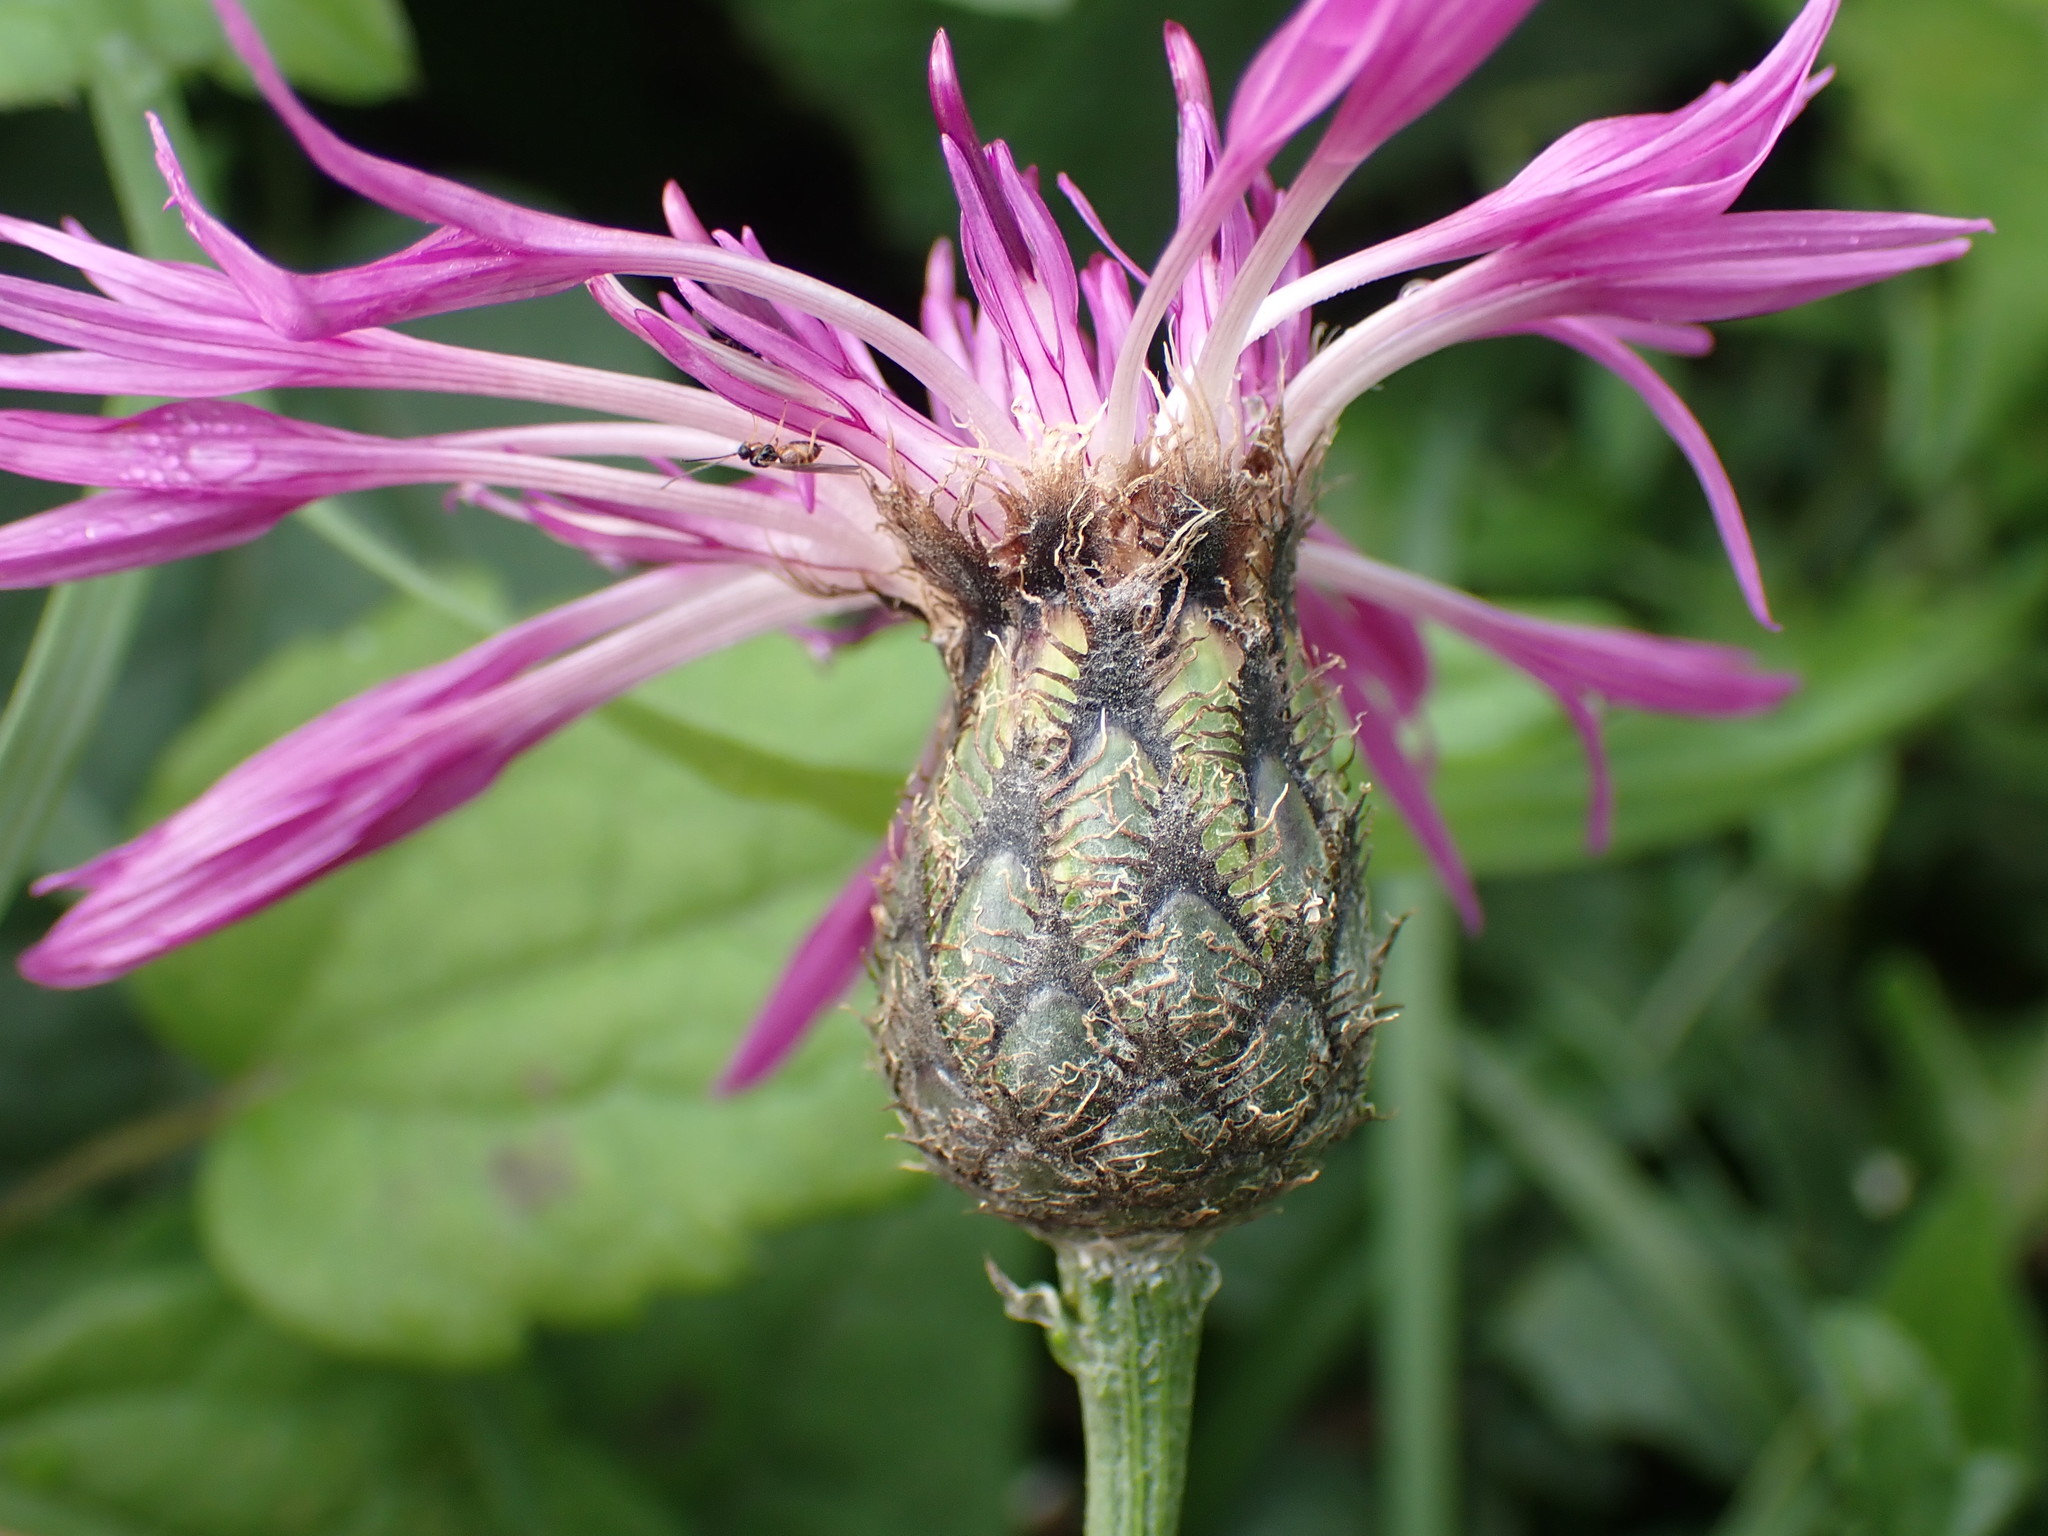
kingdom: Plantae
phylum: Tracheophyta
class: Magnoliopsida
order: Asterales
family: Asteraceae
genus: Centaurea
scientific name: Centaurea scabiosa
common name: Greater knapweed
